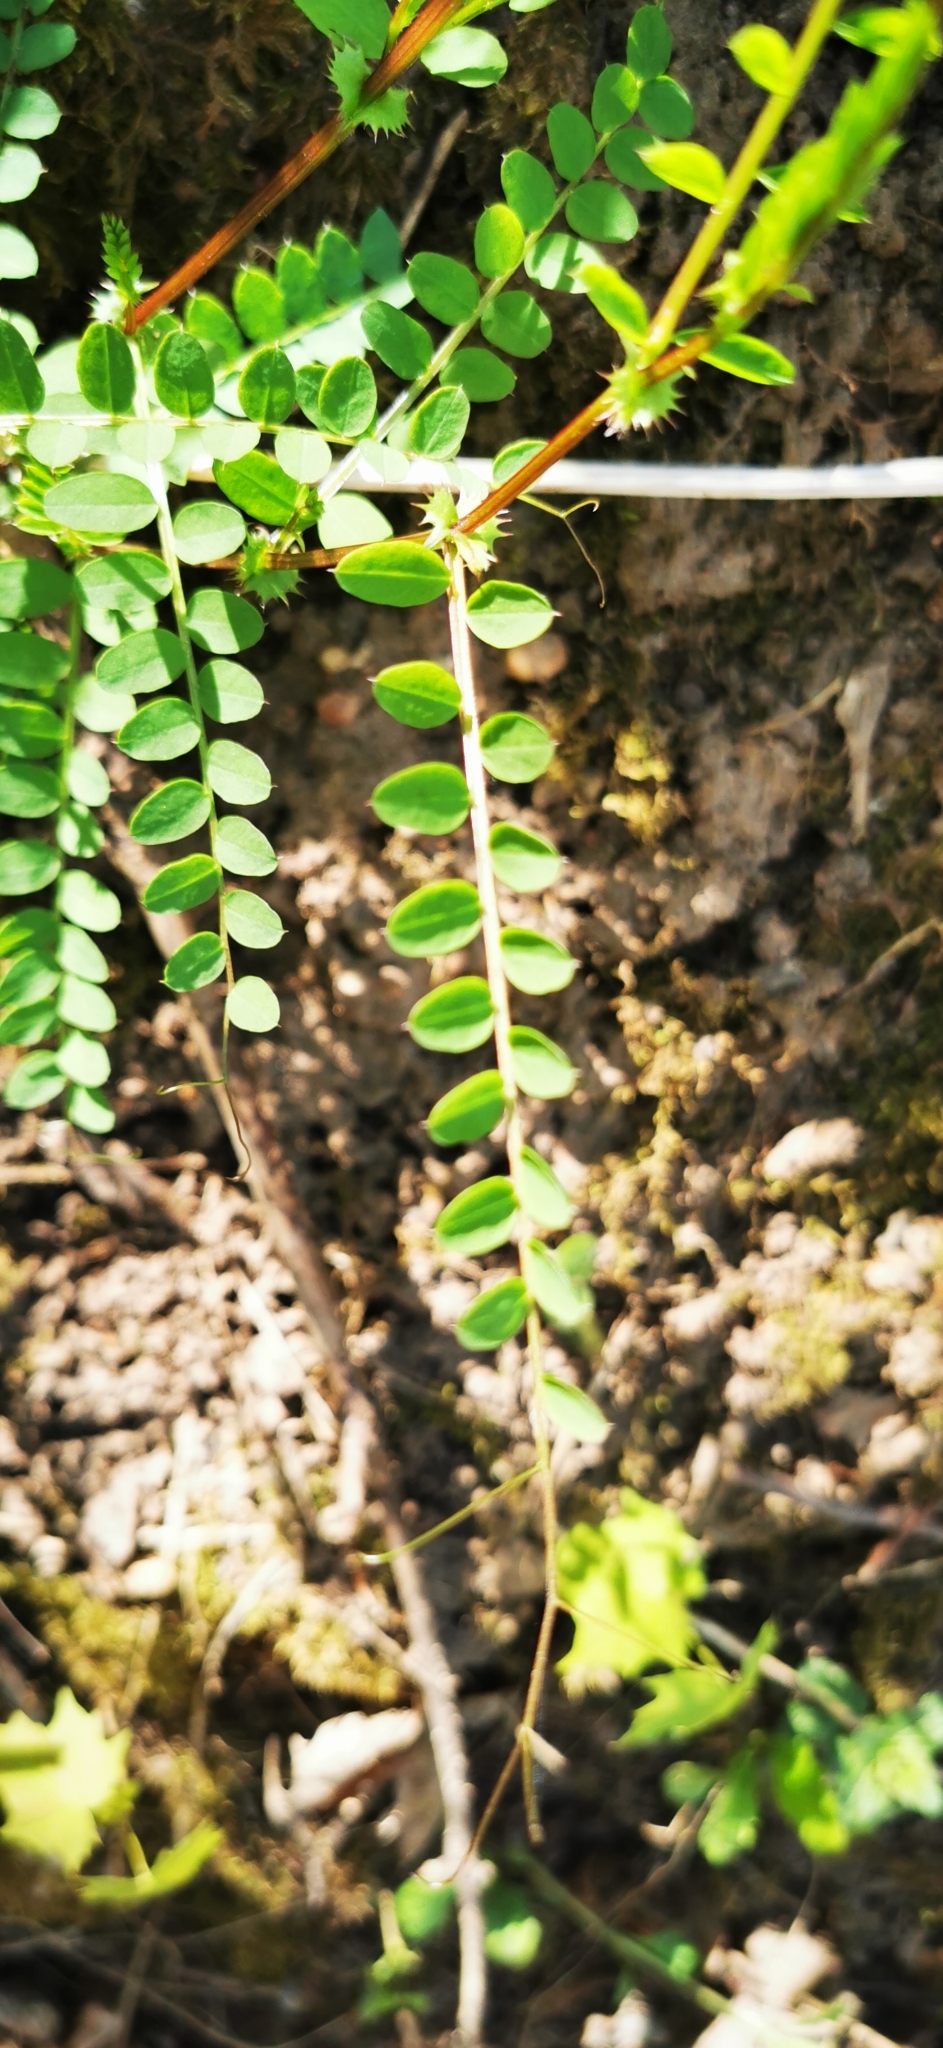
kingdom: Plantae
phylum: Tracheophyta
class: Magnoliopsida
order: Fabales
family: Fabaceae
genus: Vicia
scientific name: Vicia sylvatica
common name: Wood vetch
